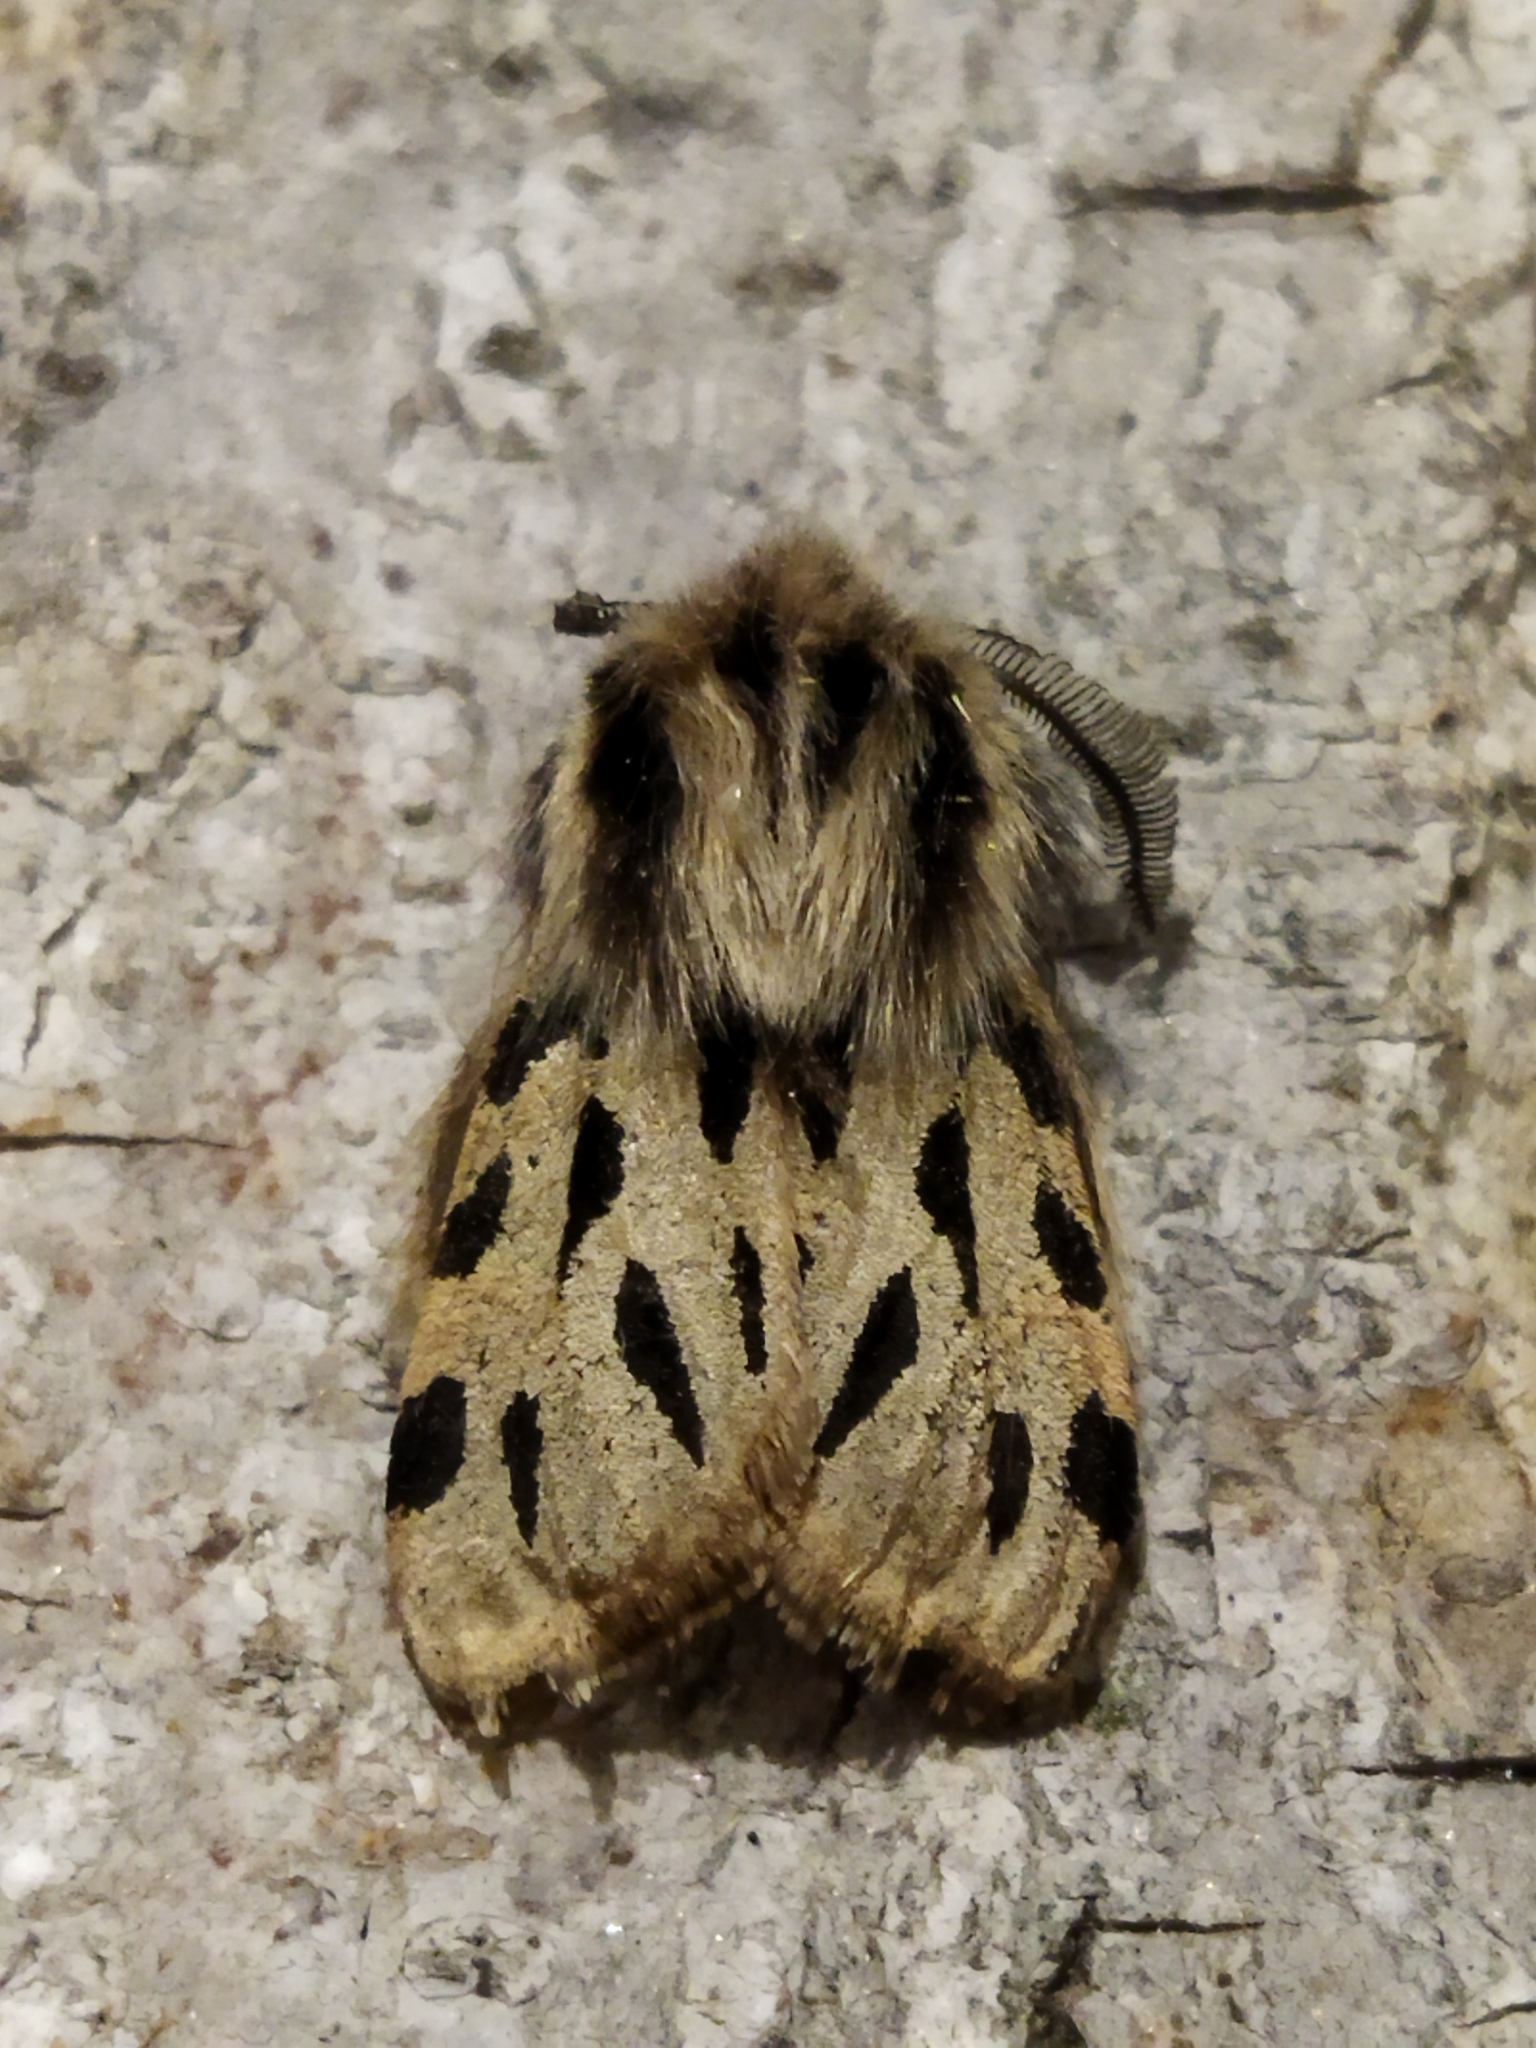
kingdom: Animalia
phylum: Arthropoda
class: Insecta
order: Lepidoptera
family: Erebidae
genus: Ocnogyna
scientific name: Ocnogyna parasita
